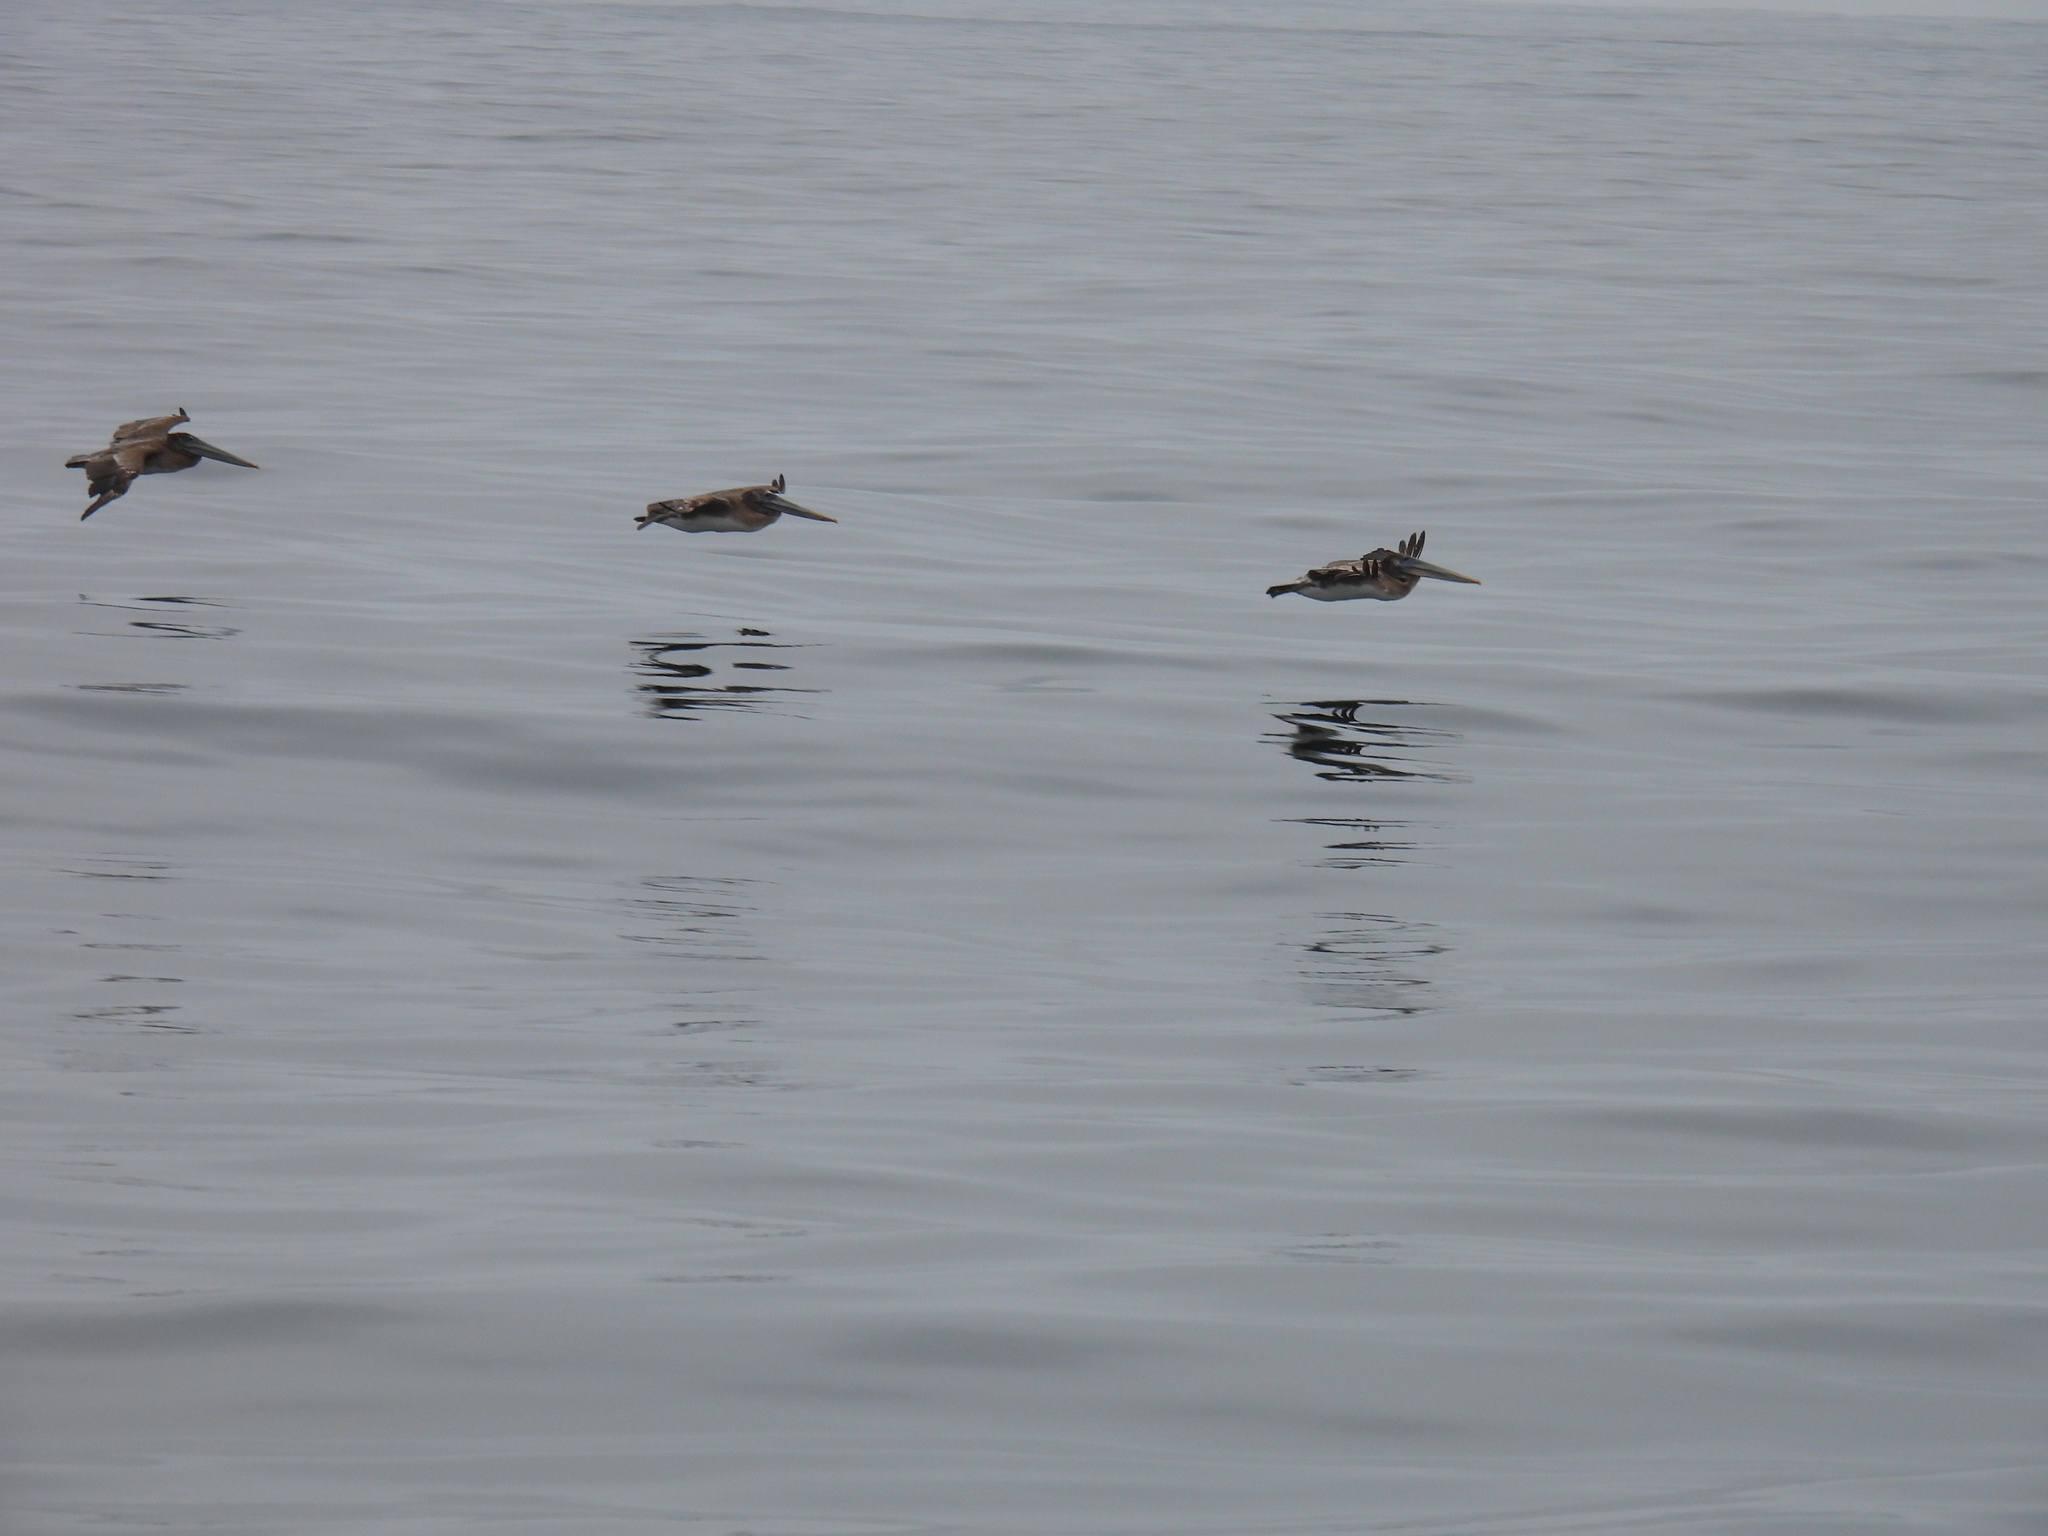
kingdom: Animalia
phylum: Chordata
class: Aves
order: Pelecaniformes
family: Pelecanidae
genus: Pelecanus
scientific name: Pelecanus occidentalis
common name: Brown pelican
